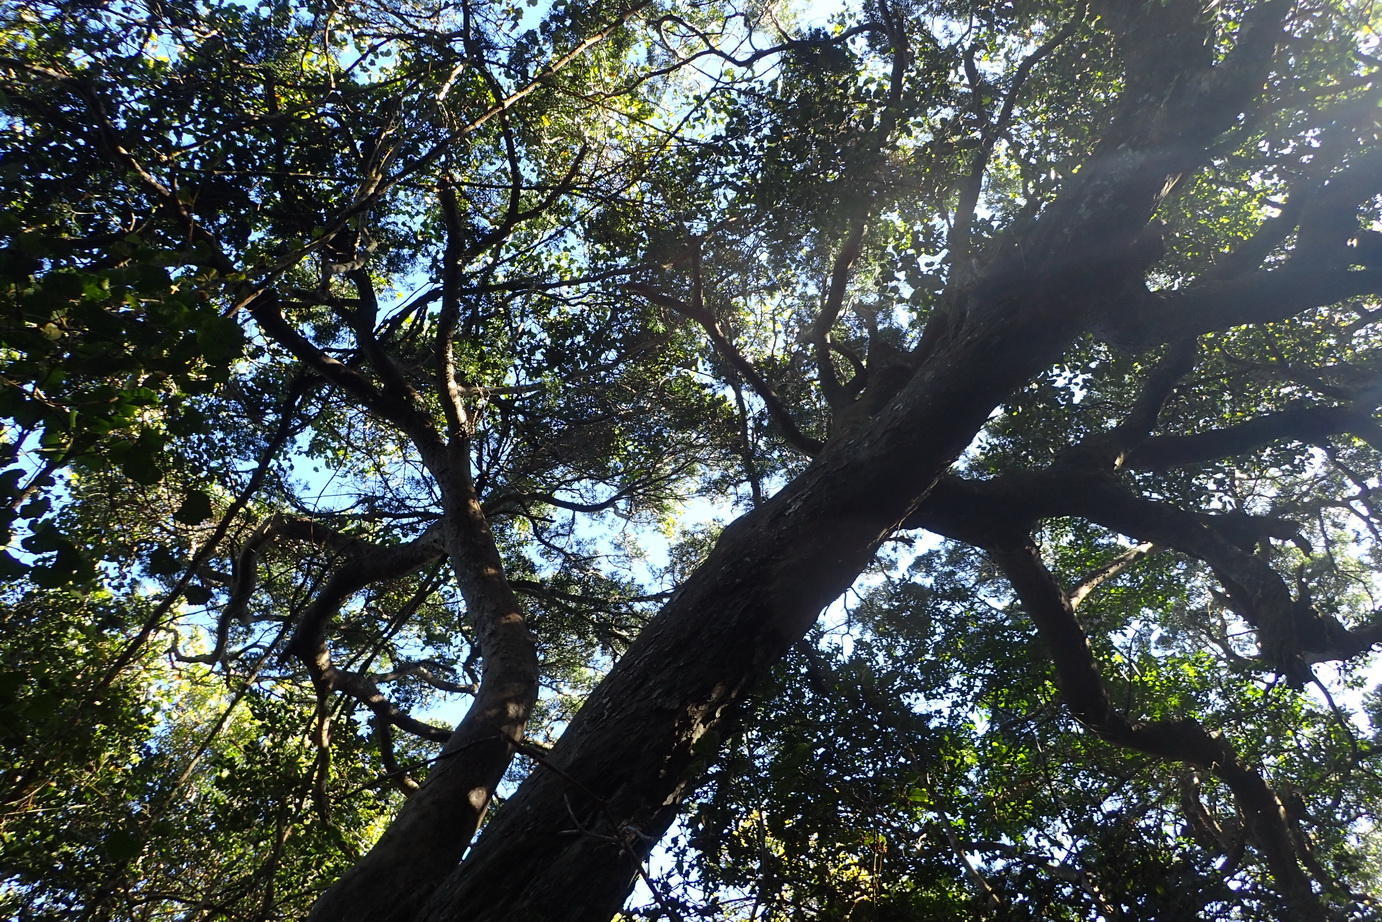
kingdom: Plantae
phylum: Tracheophyta
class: Pinopsida
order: Pinales
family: Podocarpaceae
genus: Afrocarpus
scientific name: Afrocarpus falcatus
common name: Bastard yellowwood
